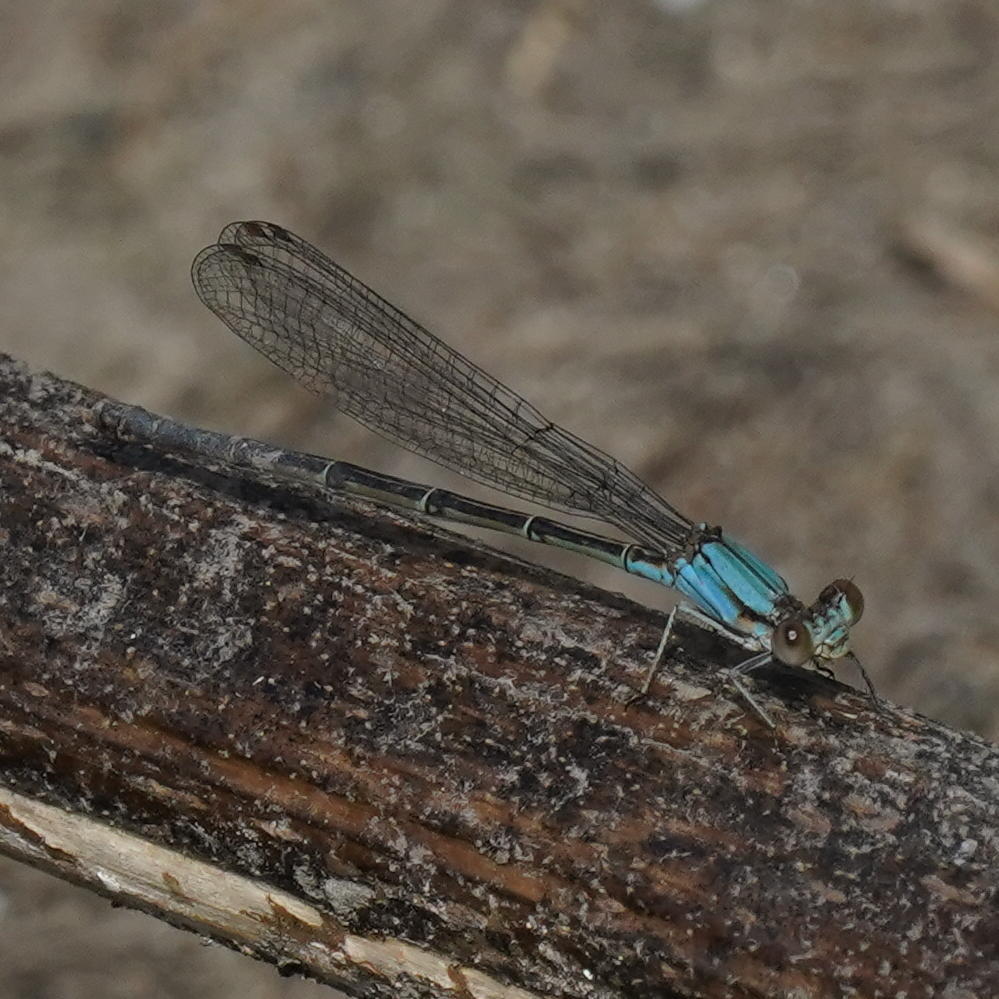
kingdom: Animalia
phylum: Arthropoda
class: Insecta
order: Odonata
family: Coenagrionidae
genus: Argia
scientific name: Argia apicalis
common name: Blue-fronted dancer
